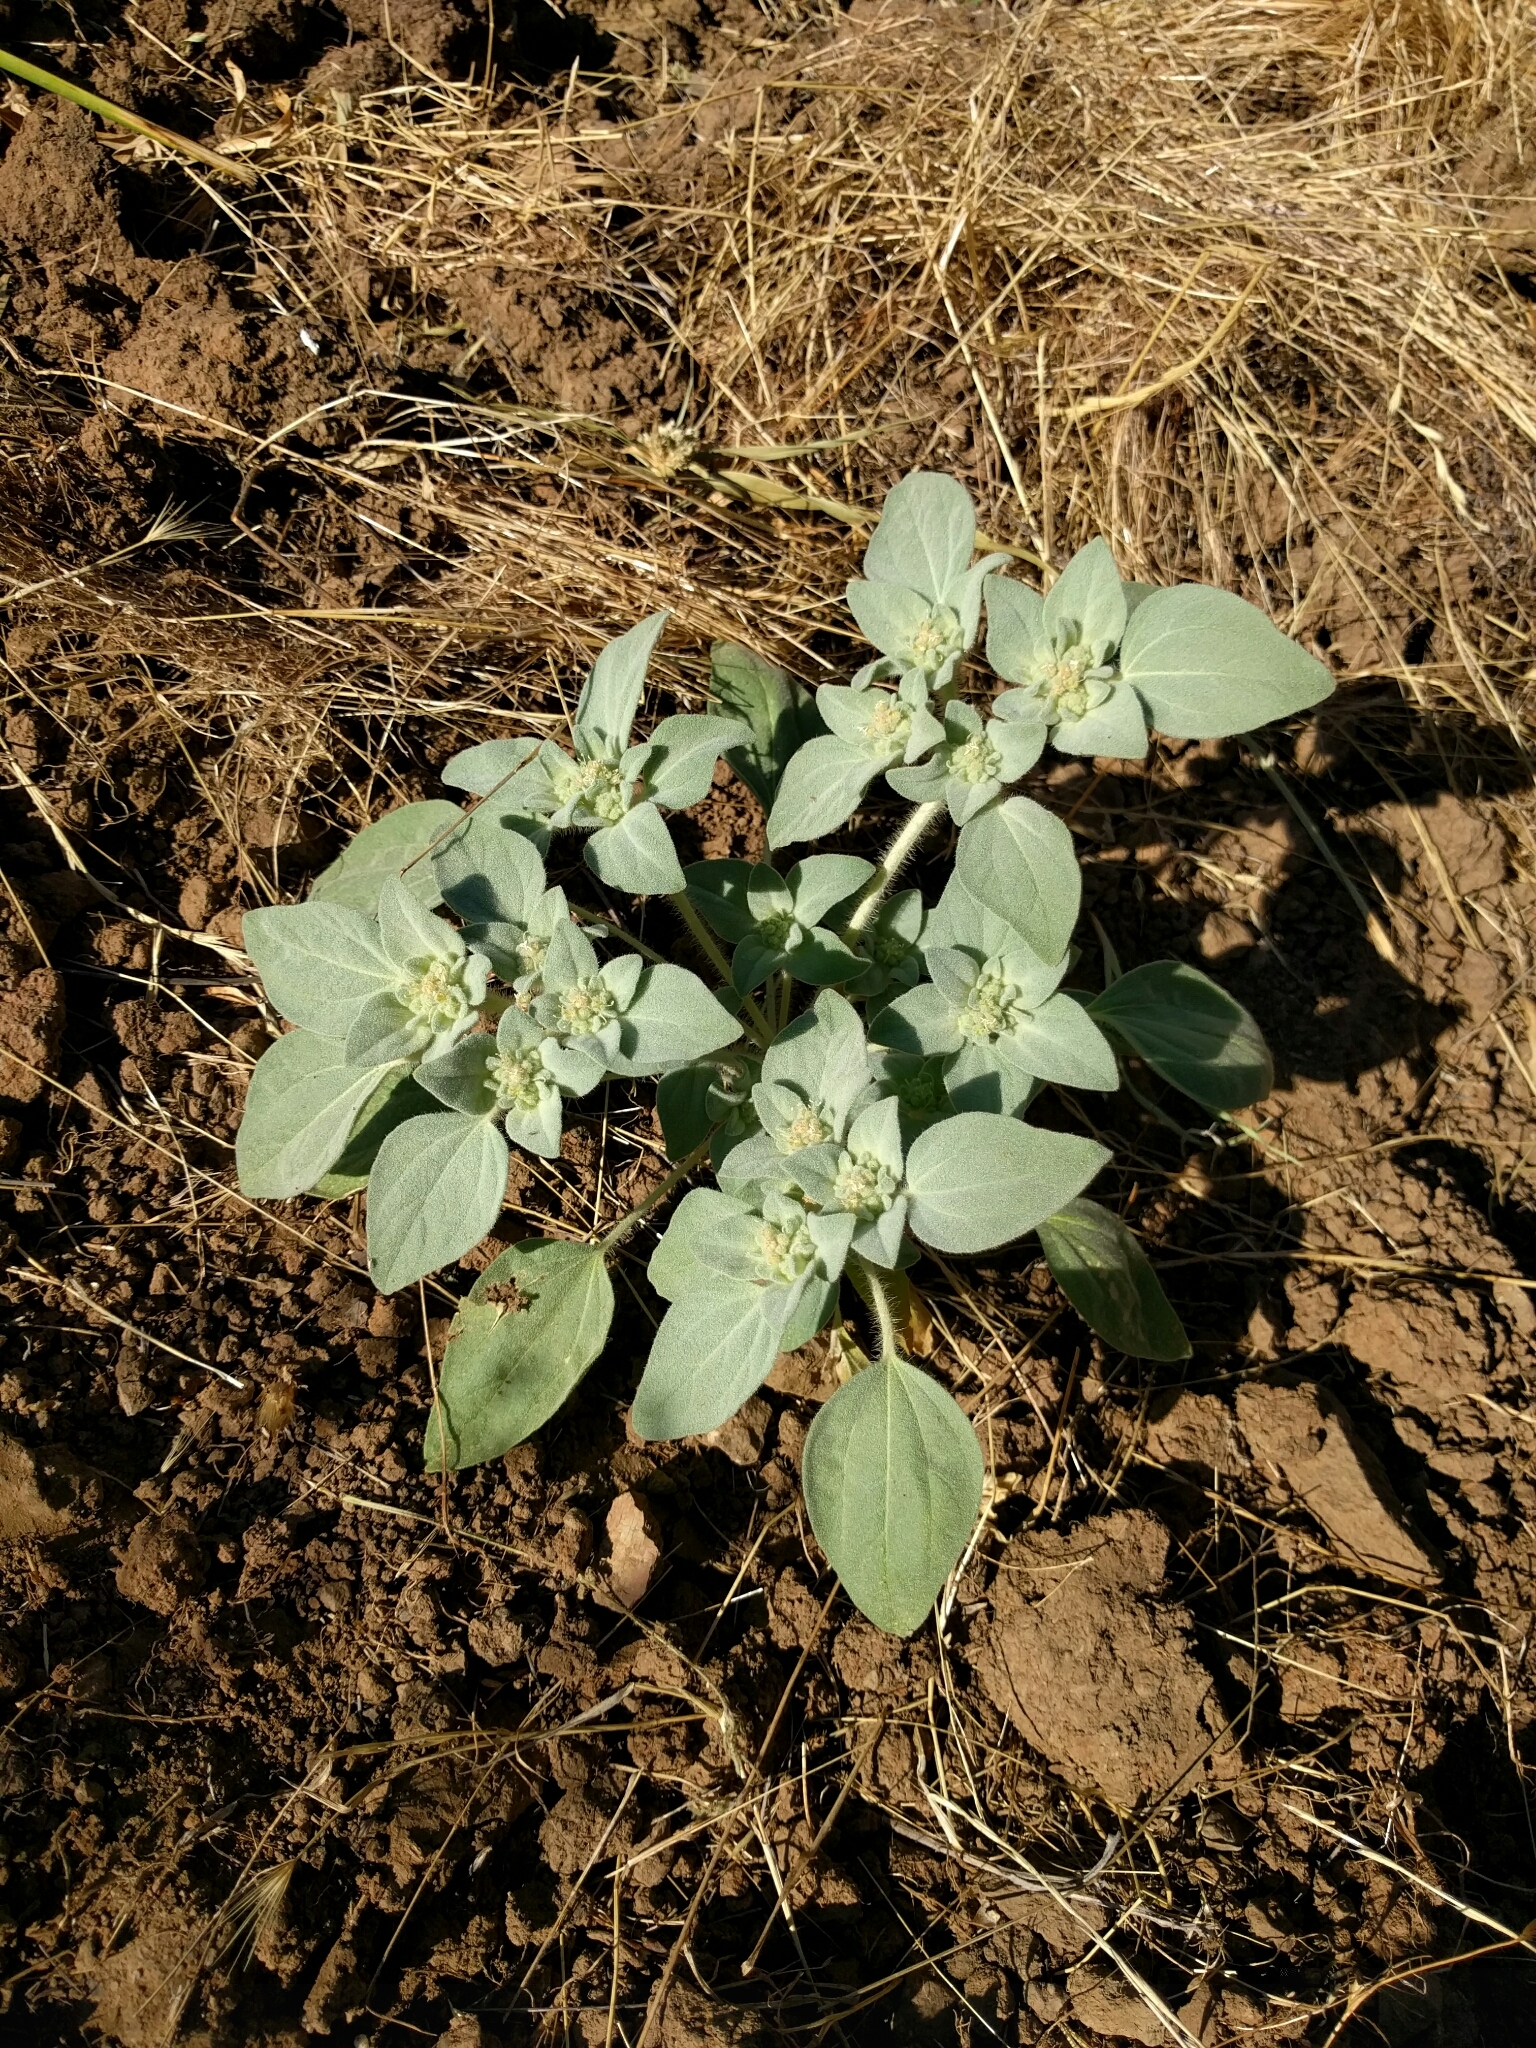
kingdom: Plantae
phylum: Tracheophyta
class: Magnoliopsida
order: Malpighiales
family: Euphorbiaceae
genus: Croton
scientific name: Croton setiger
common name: Dove weed
